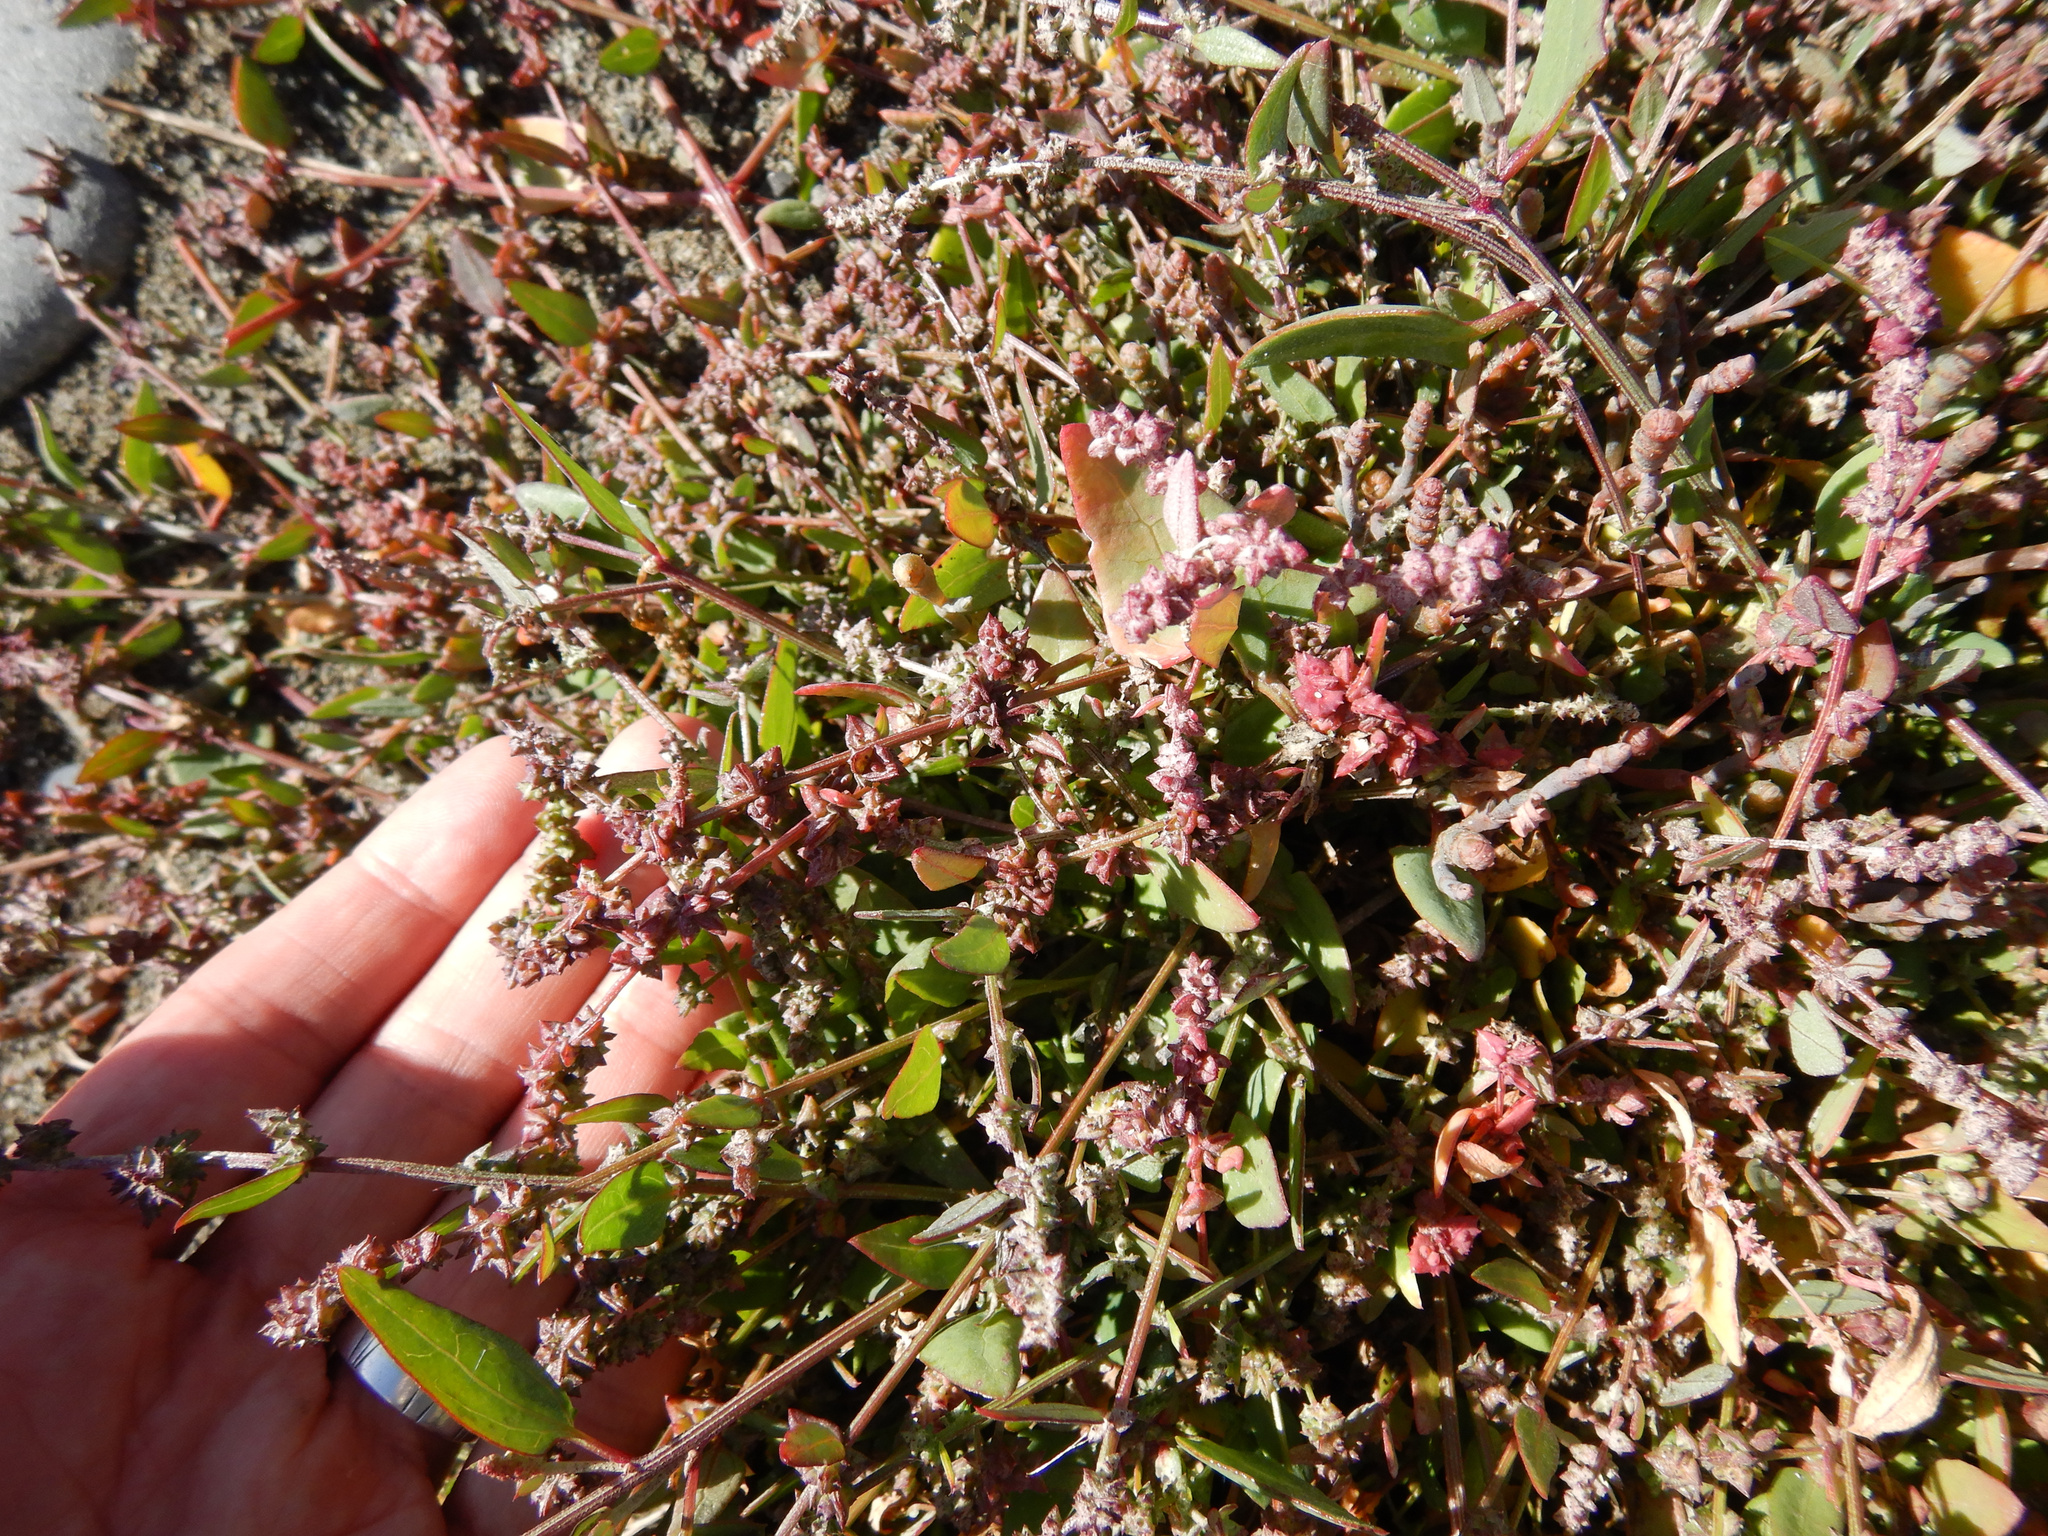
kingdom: Plantae
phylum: Tracheophyta
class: Magnoliopsida
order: Caryophyllales
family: Amaranthaceae
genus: Atriplex
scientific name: Atriplex prostrata
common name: Spear-leaved orache
